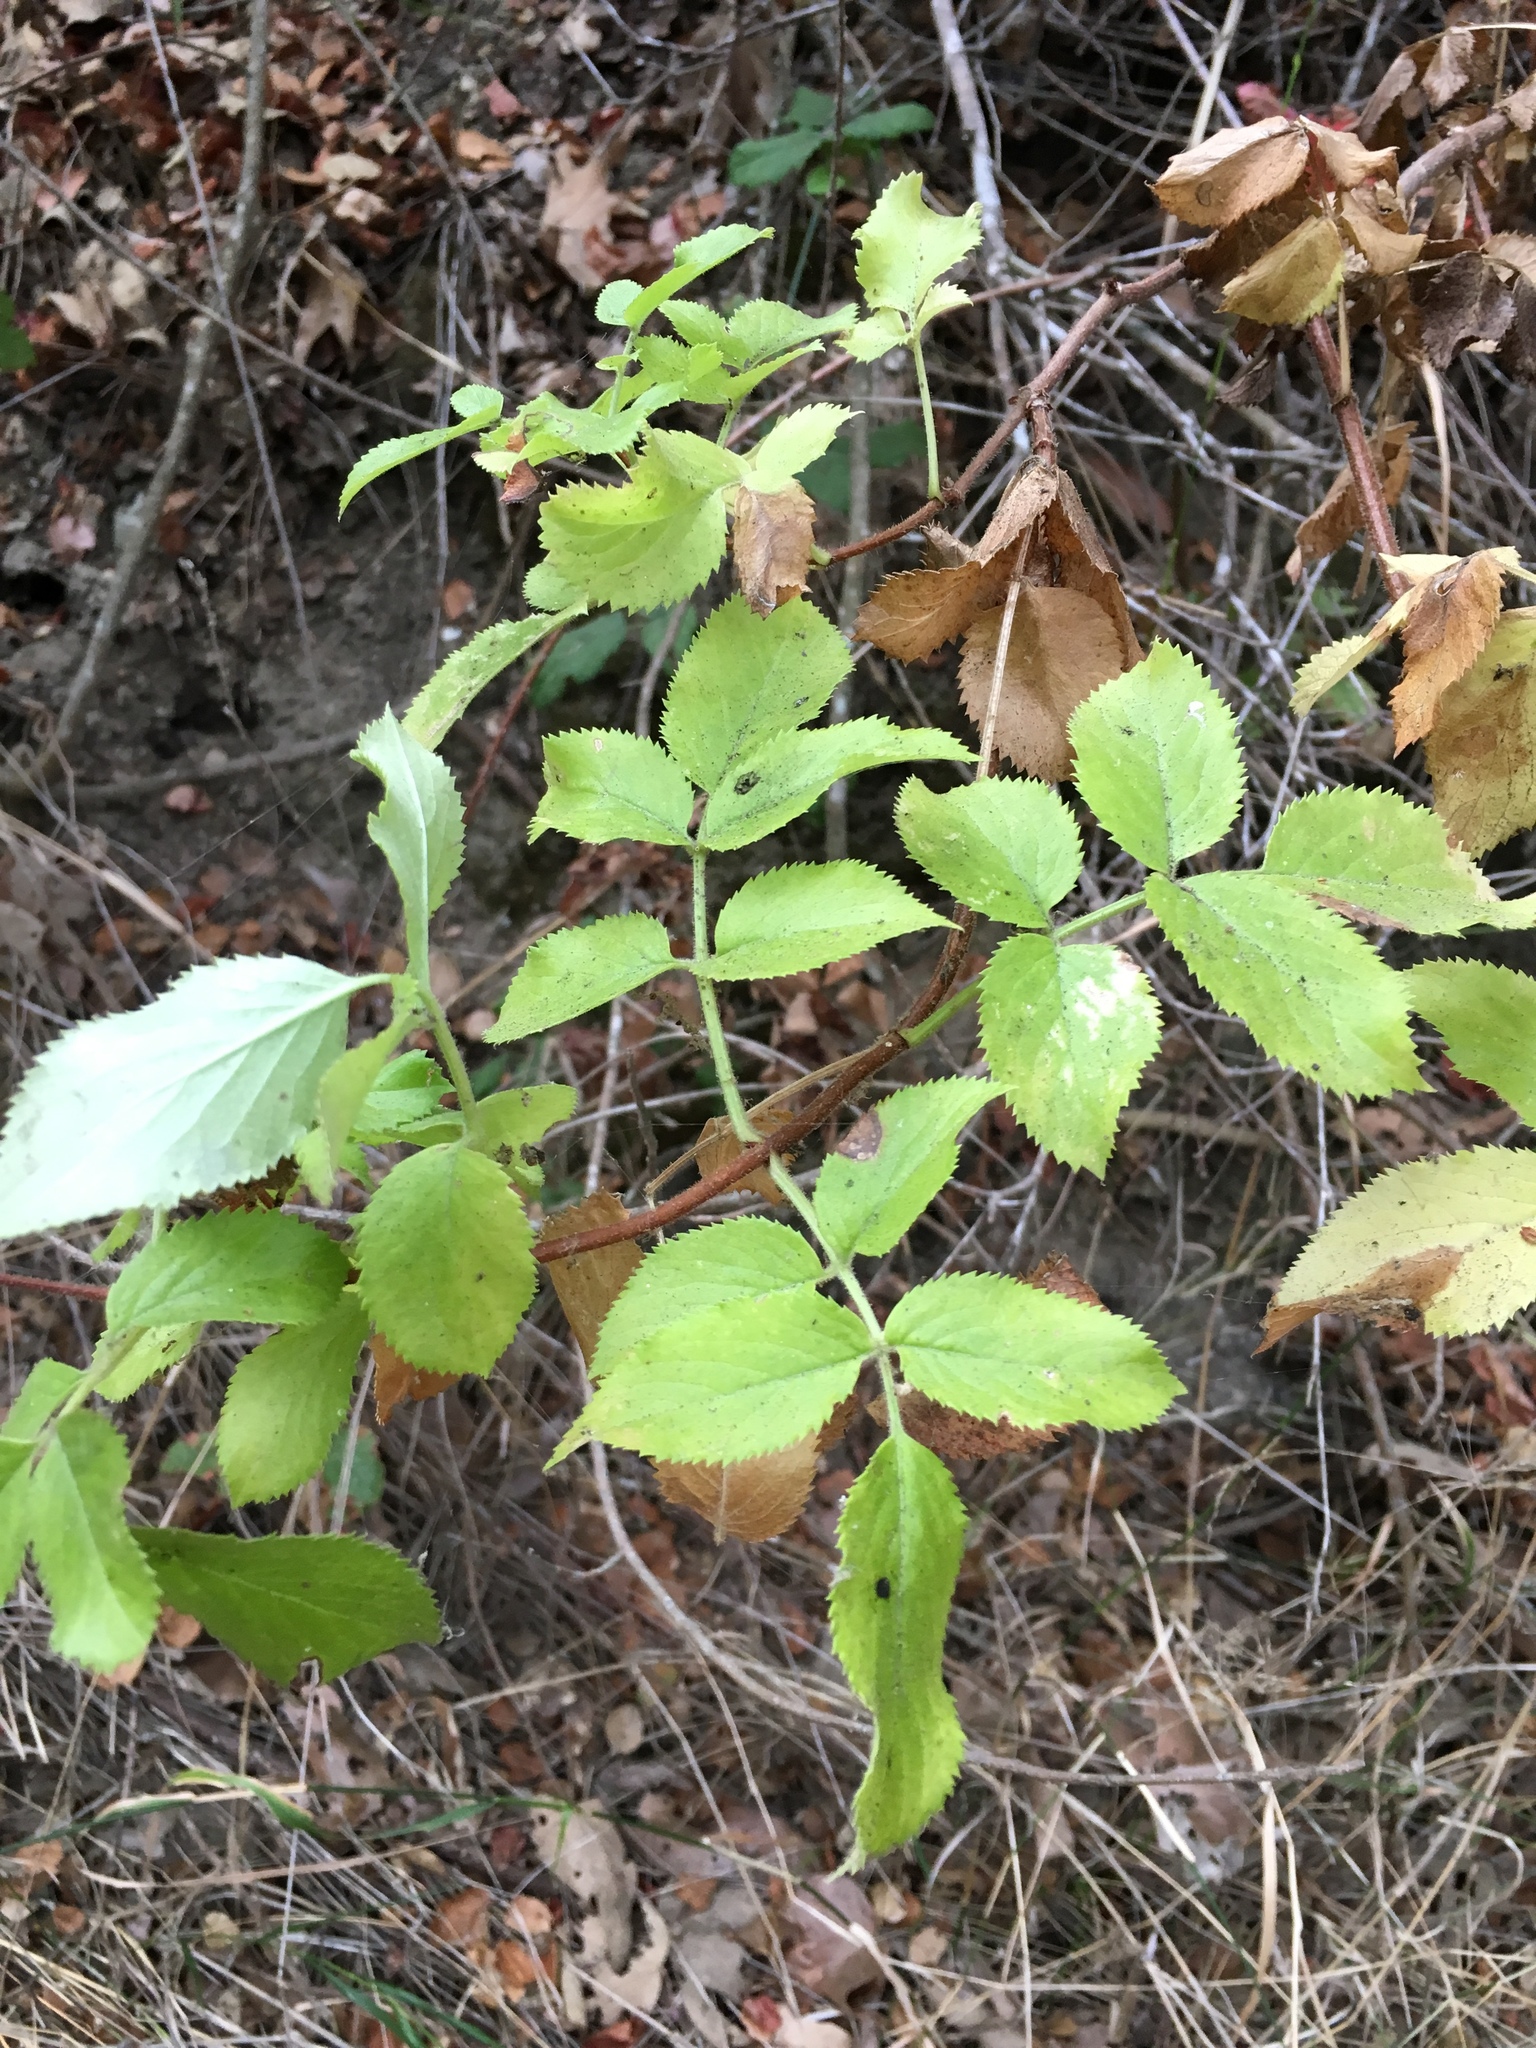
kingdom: Plantae
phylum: Tracheophyta
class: Magnoliopsida
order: Dipsacales
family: Viburnaceae
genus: Sambucus
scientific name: Sambucus cerulea
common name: Blue elder
